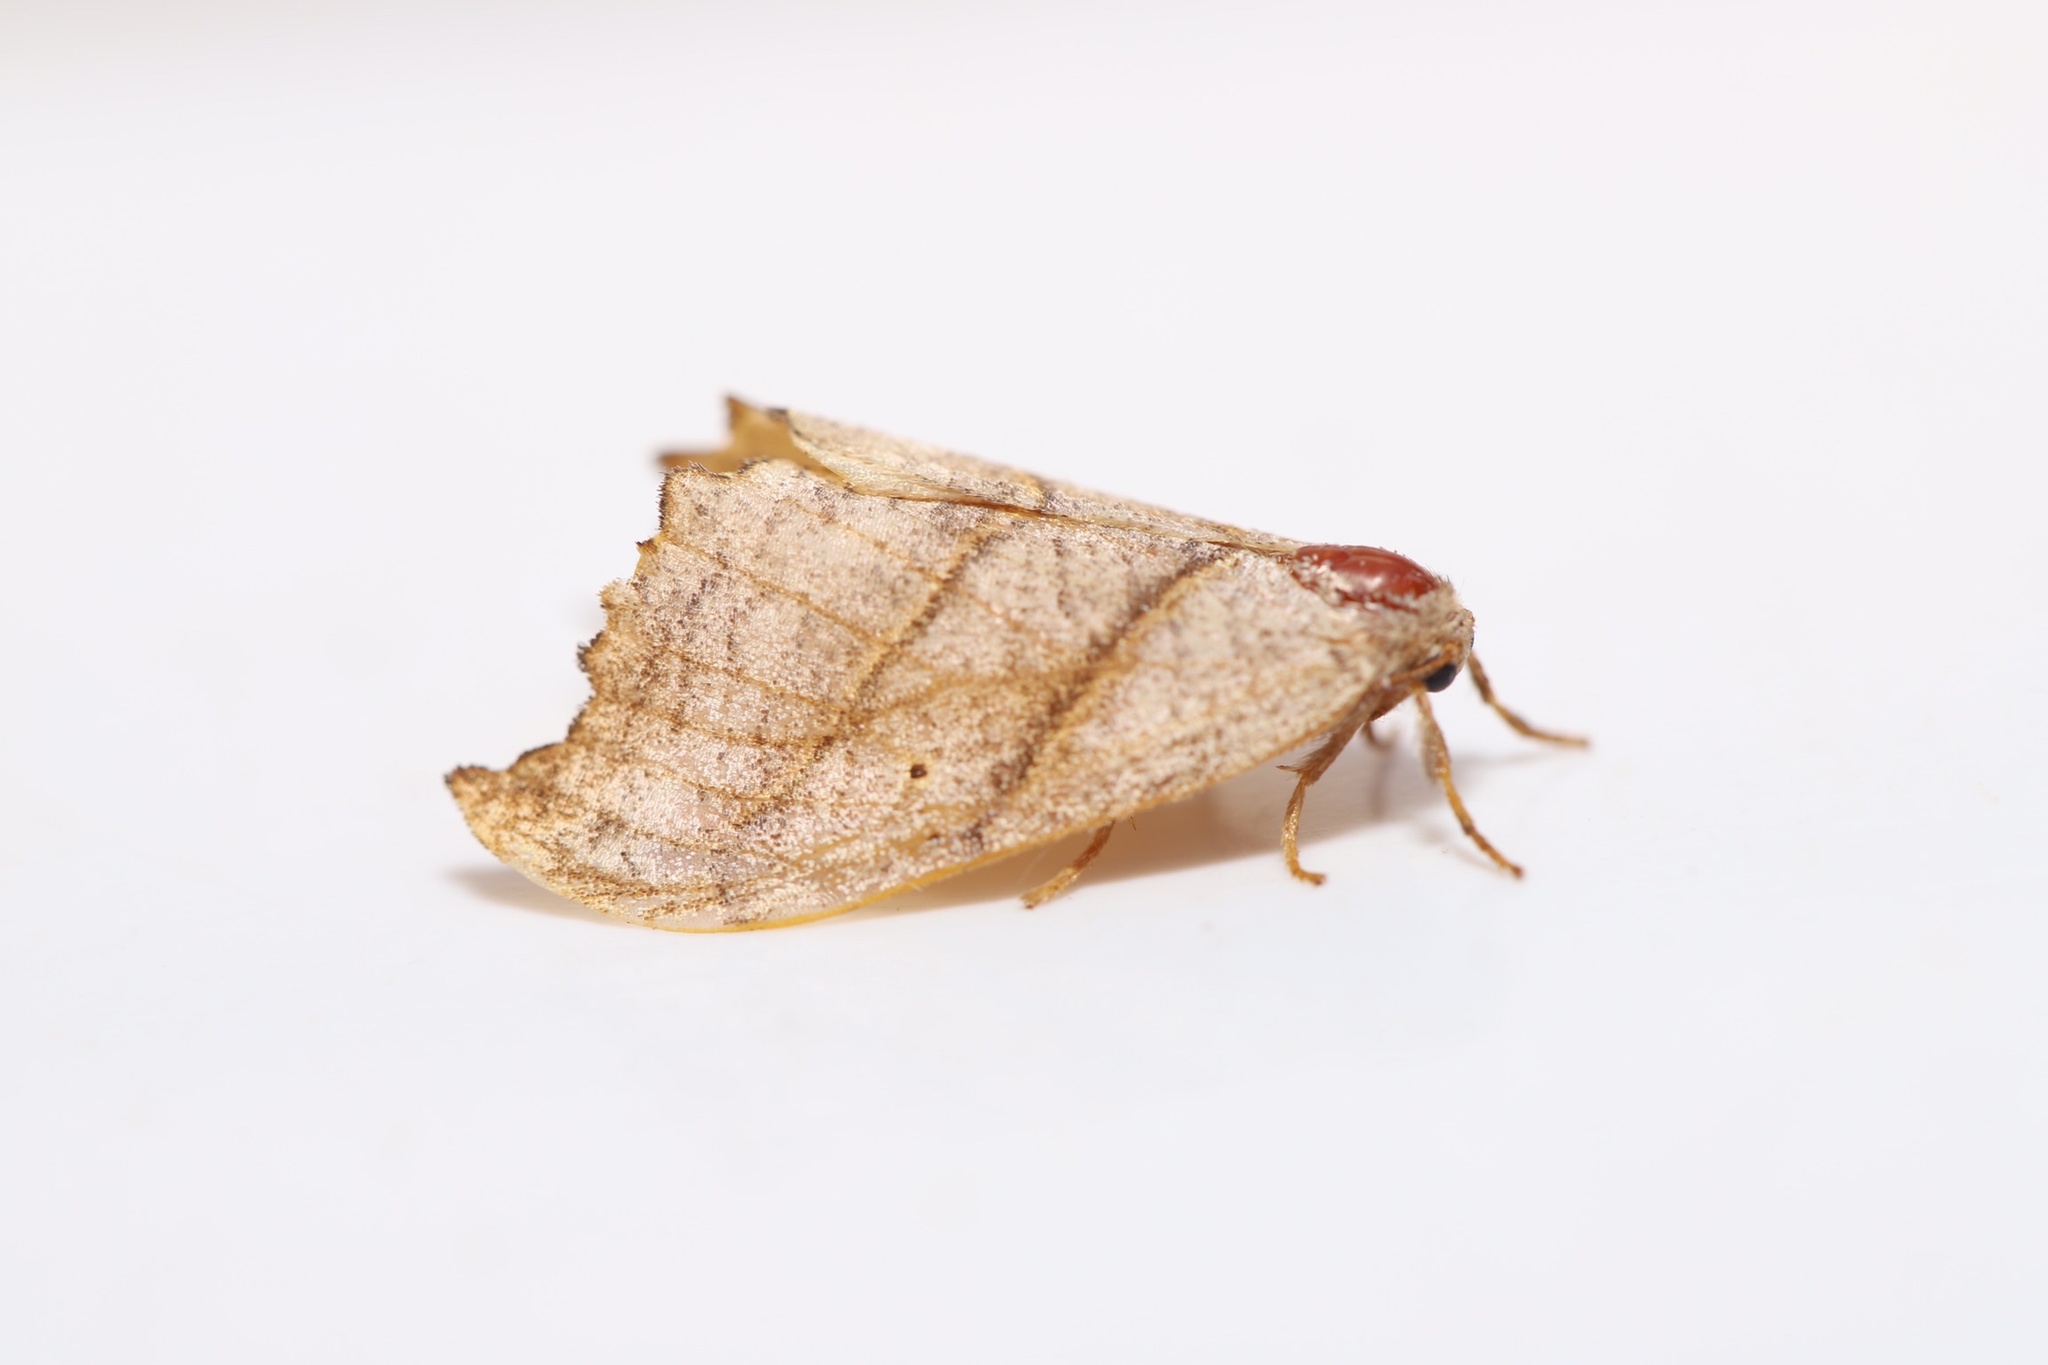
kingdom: Animalia
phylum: Arthropoda
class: Insecta
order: Lepidoptera
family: Drepanidae
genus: Falcaria
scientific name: Falcaria bilineata
